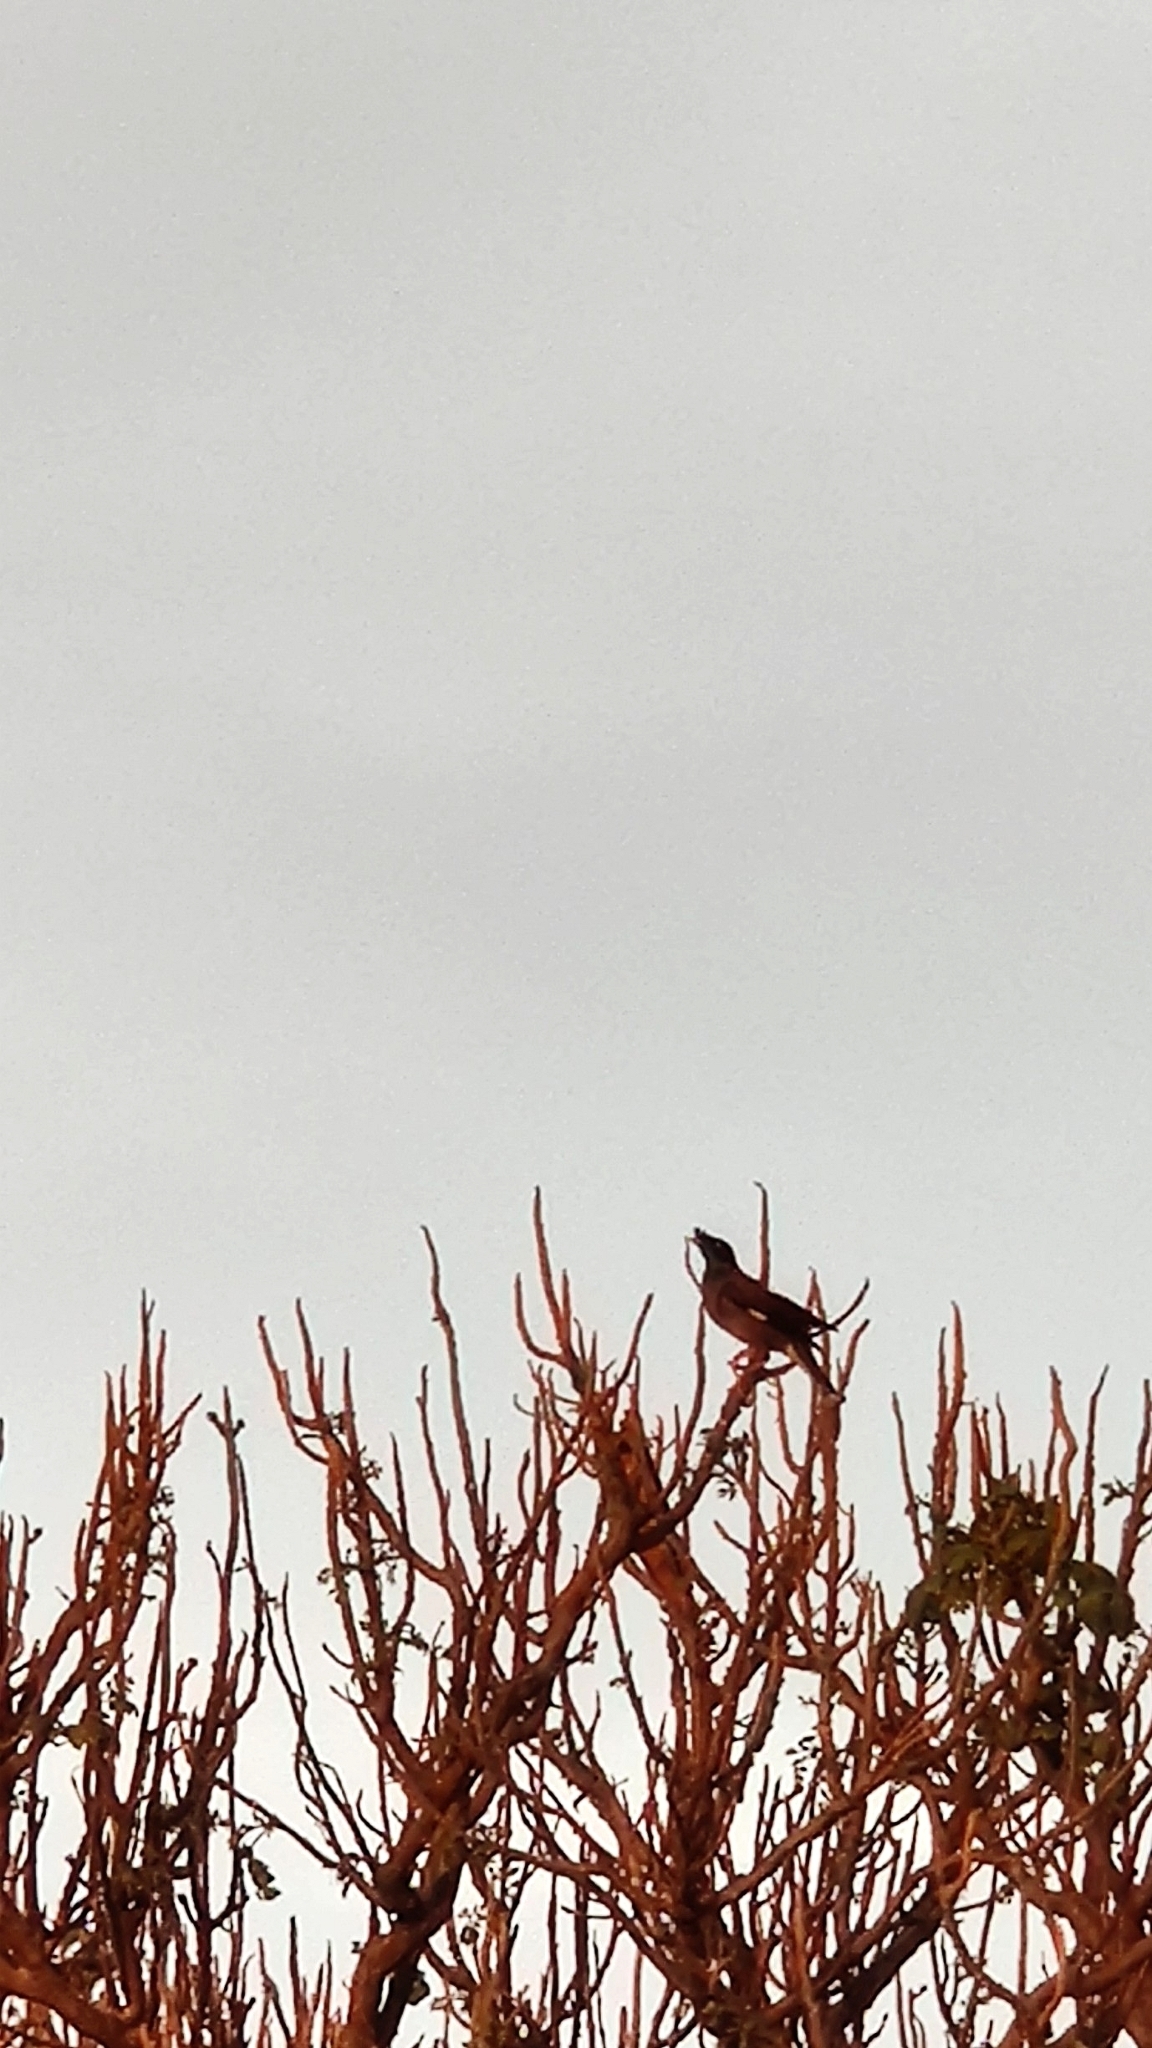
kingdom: Animalia
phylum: Chordata
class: Aves
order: Passeriformes
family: Sturnidae
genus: Acridotheres
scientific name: Acridotheres fuscus
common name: Jungle myna
